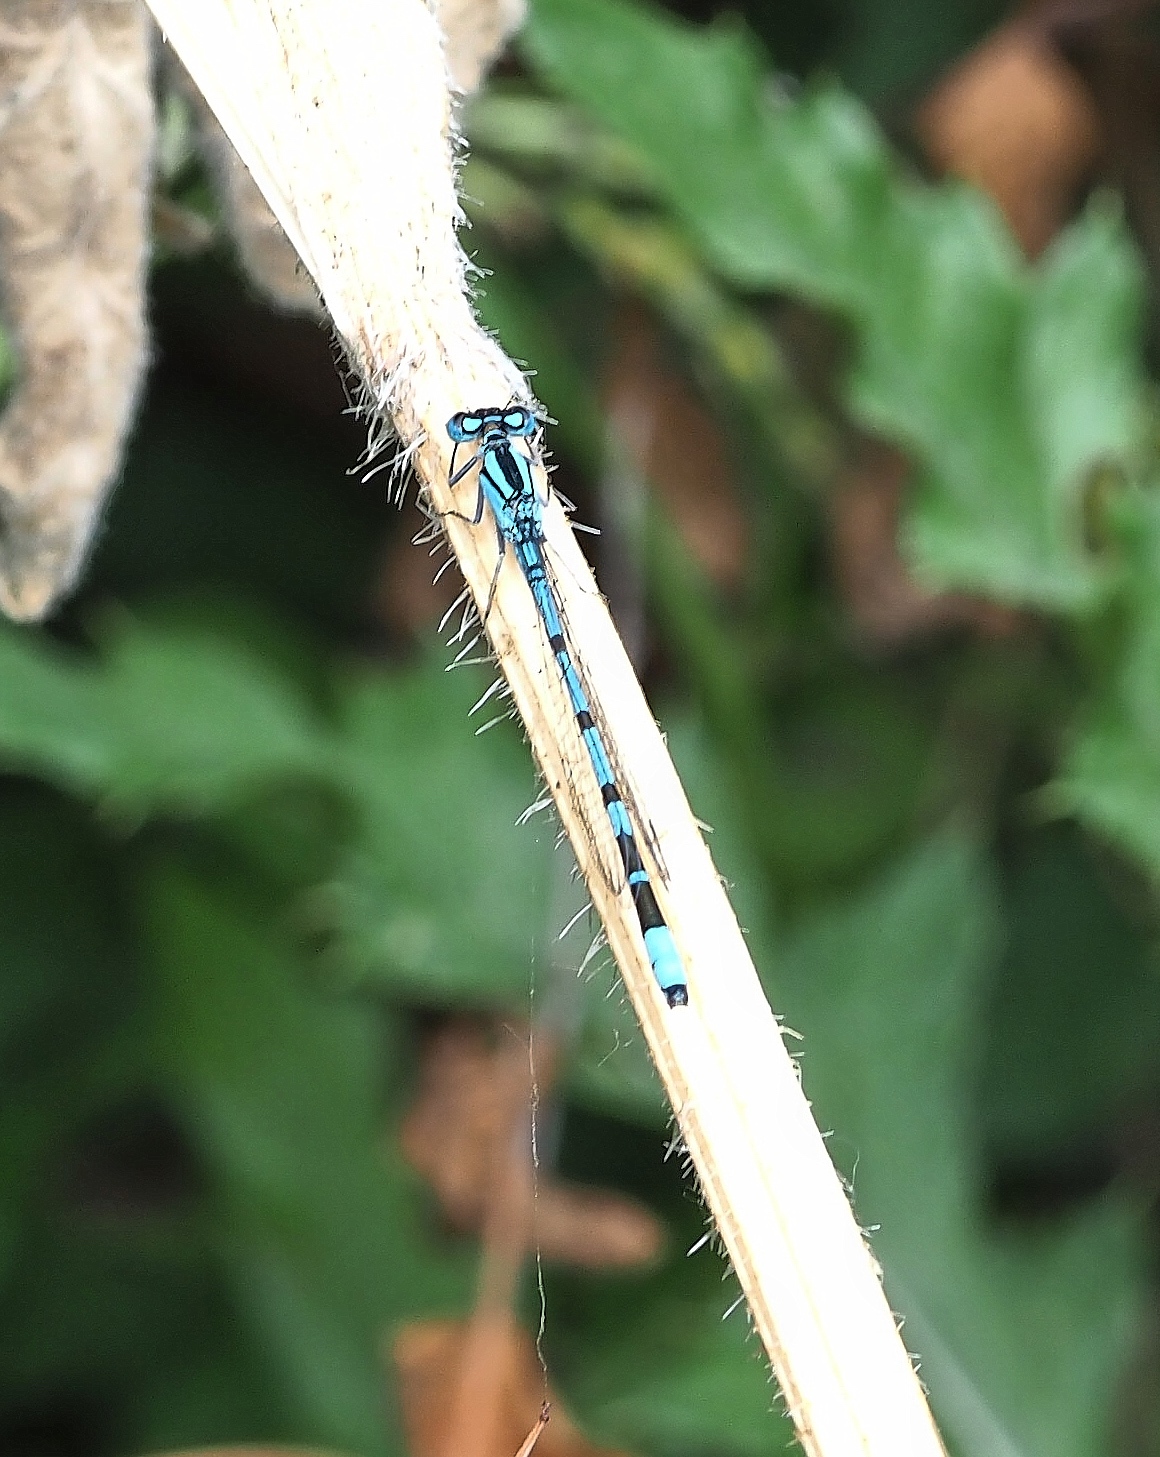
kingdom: Animalia
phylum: Arthropoda
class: Insecta
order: Odonata
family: Coenagrionidae
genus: Enallagma
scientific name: Enallagma cyathigerum
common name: Common blue damselfly
